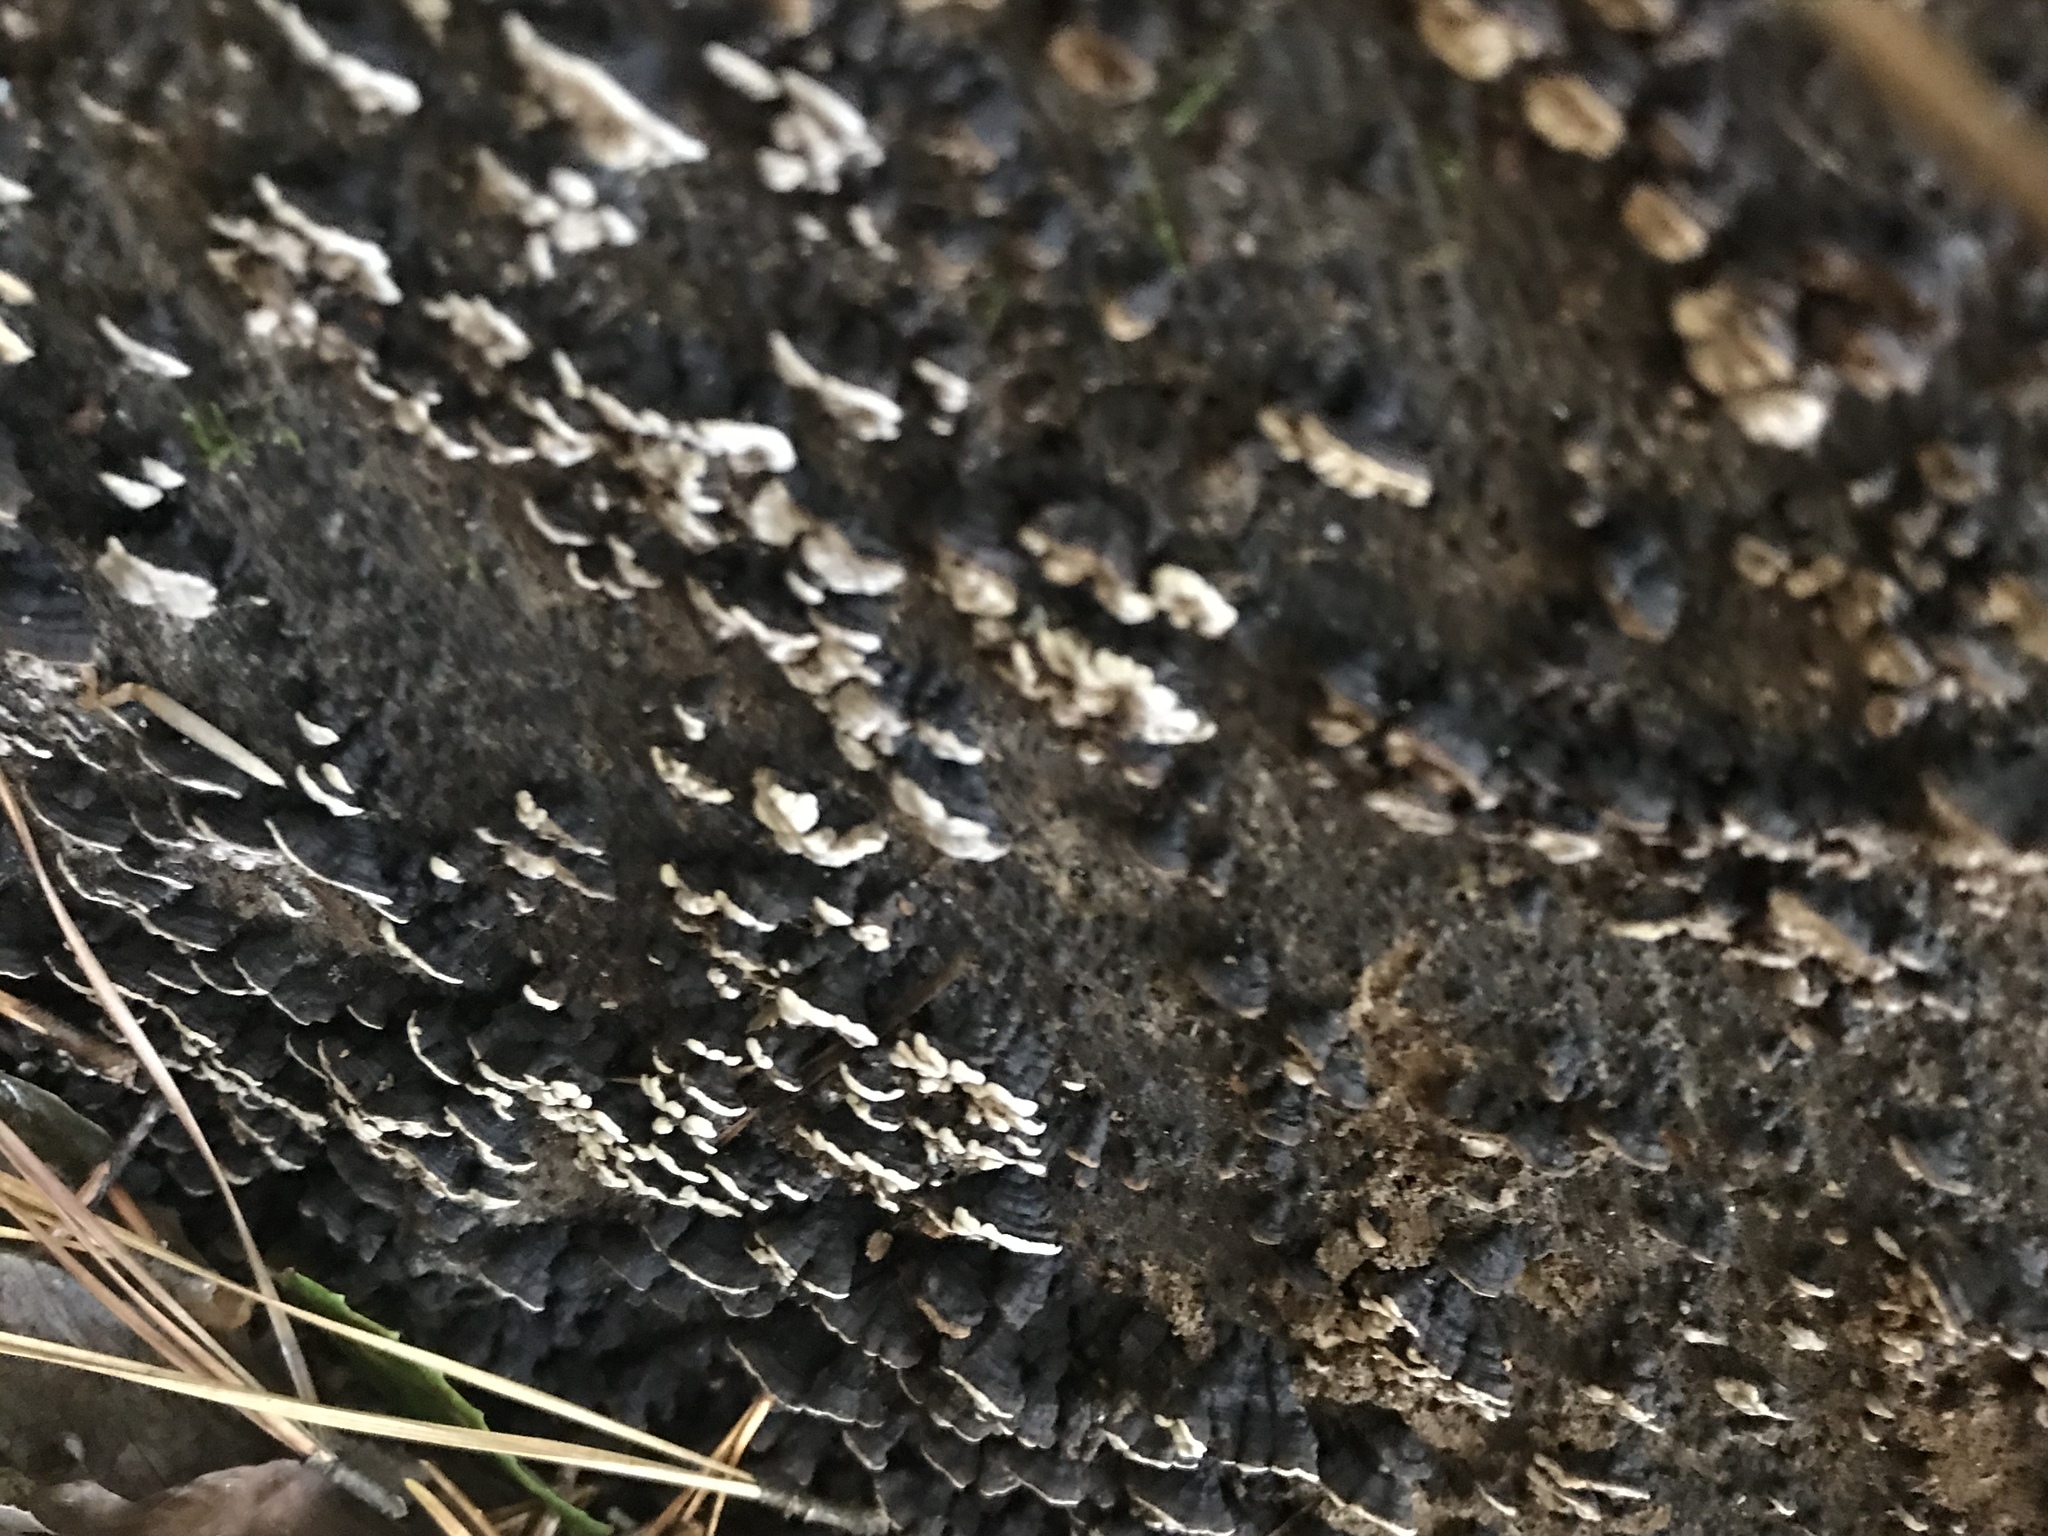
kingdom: Fungi
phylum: Basidiomycota
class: Agaricomycetes
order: Russulales
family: Stereaceae
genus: Xylobolus
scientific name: Xylobolus frustulatus
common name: Ceramic parchment
